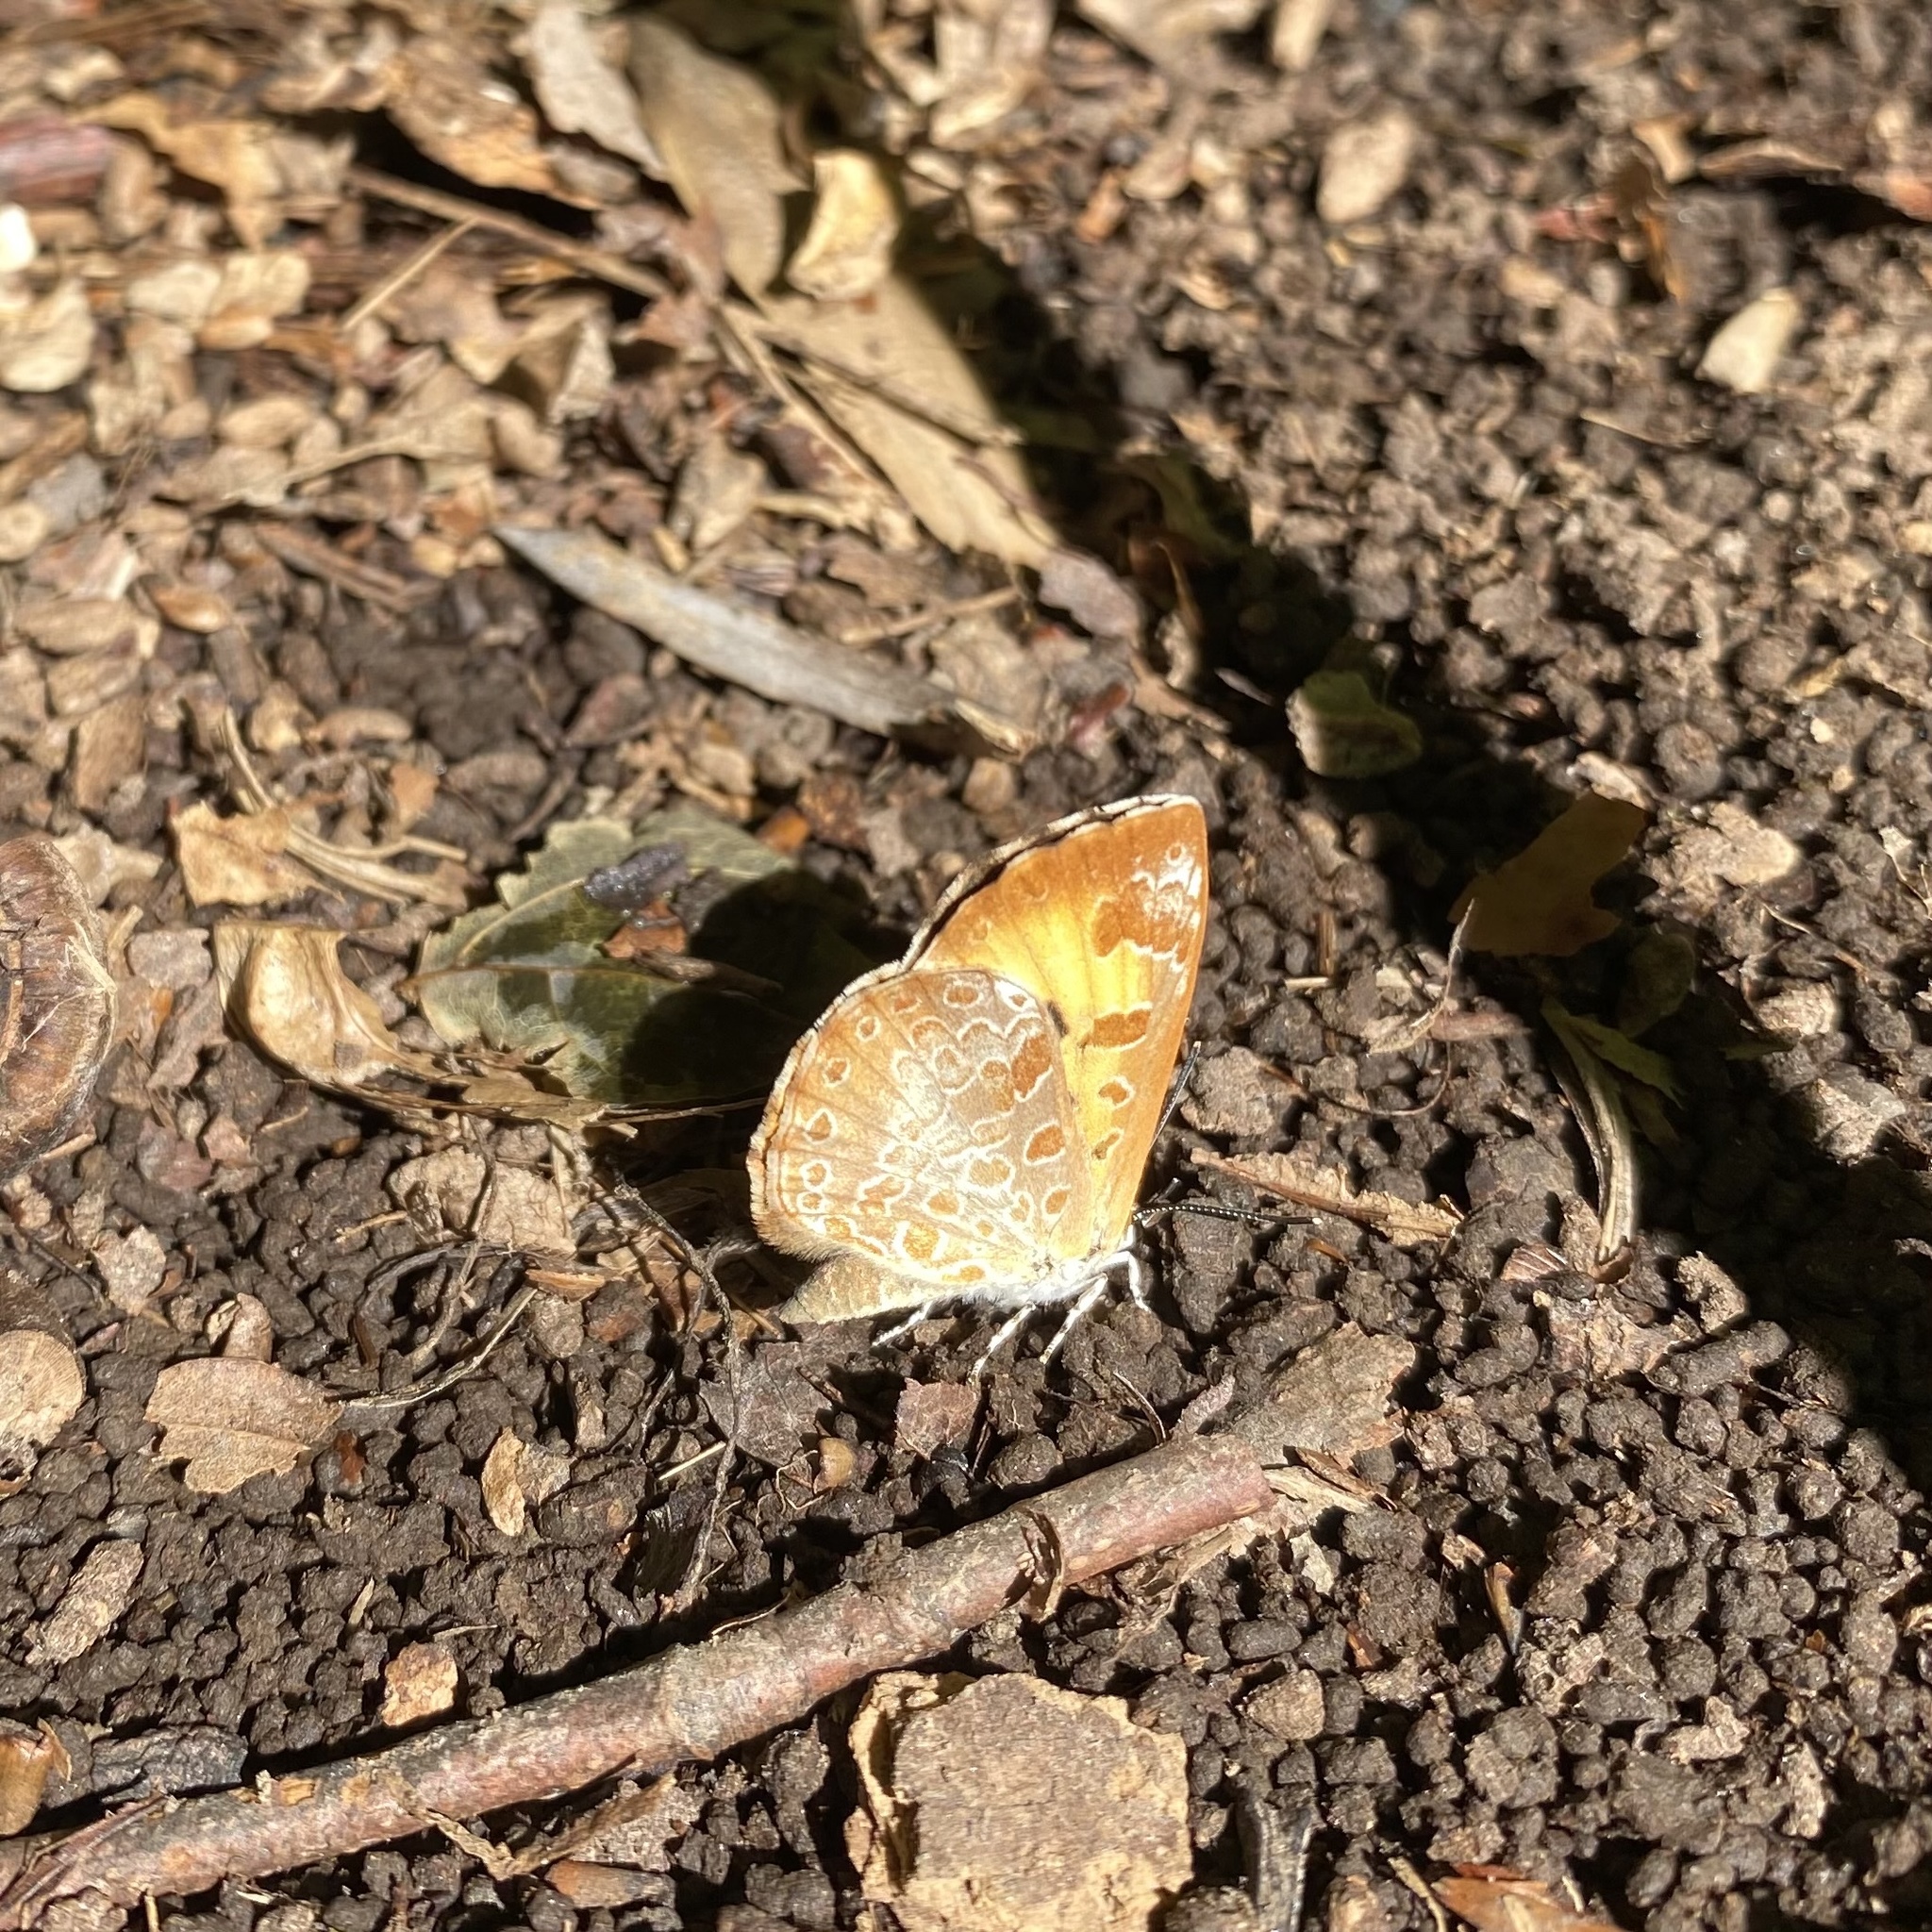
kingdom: Animalia
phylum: Arthropoda
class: Insecta
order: Lepidoptera
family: Lycaenidae
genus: Feniseca
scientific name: Feniseca tarquinius
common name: Harvester
